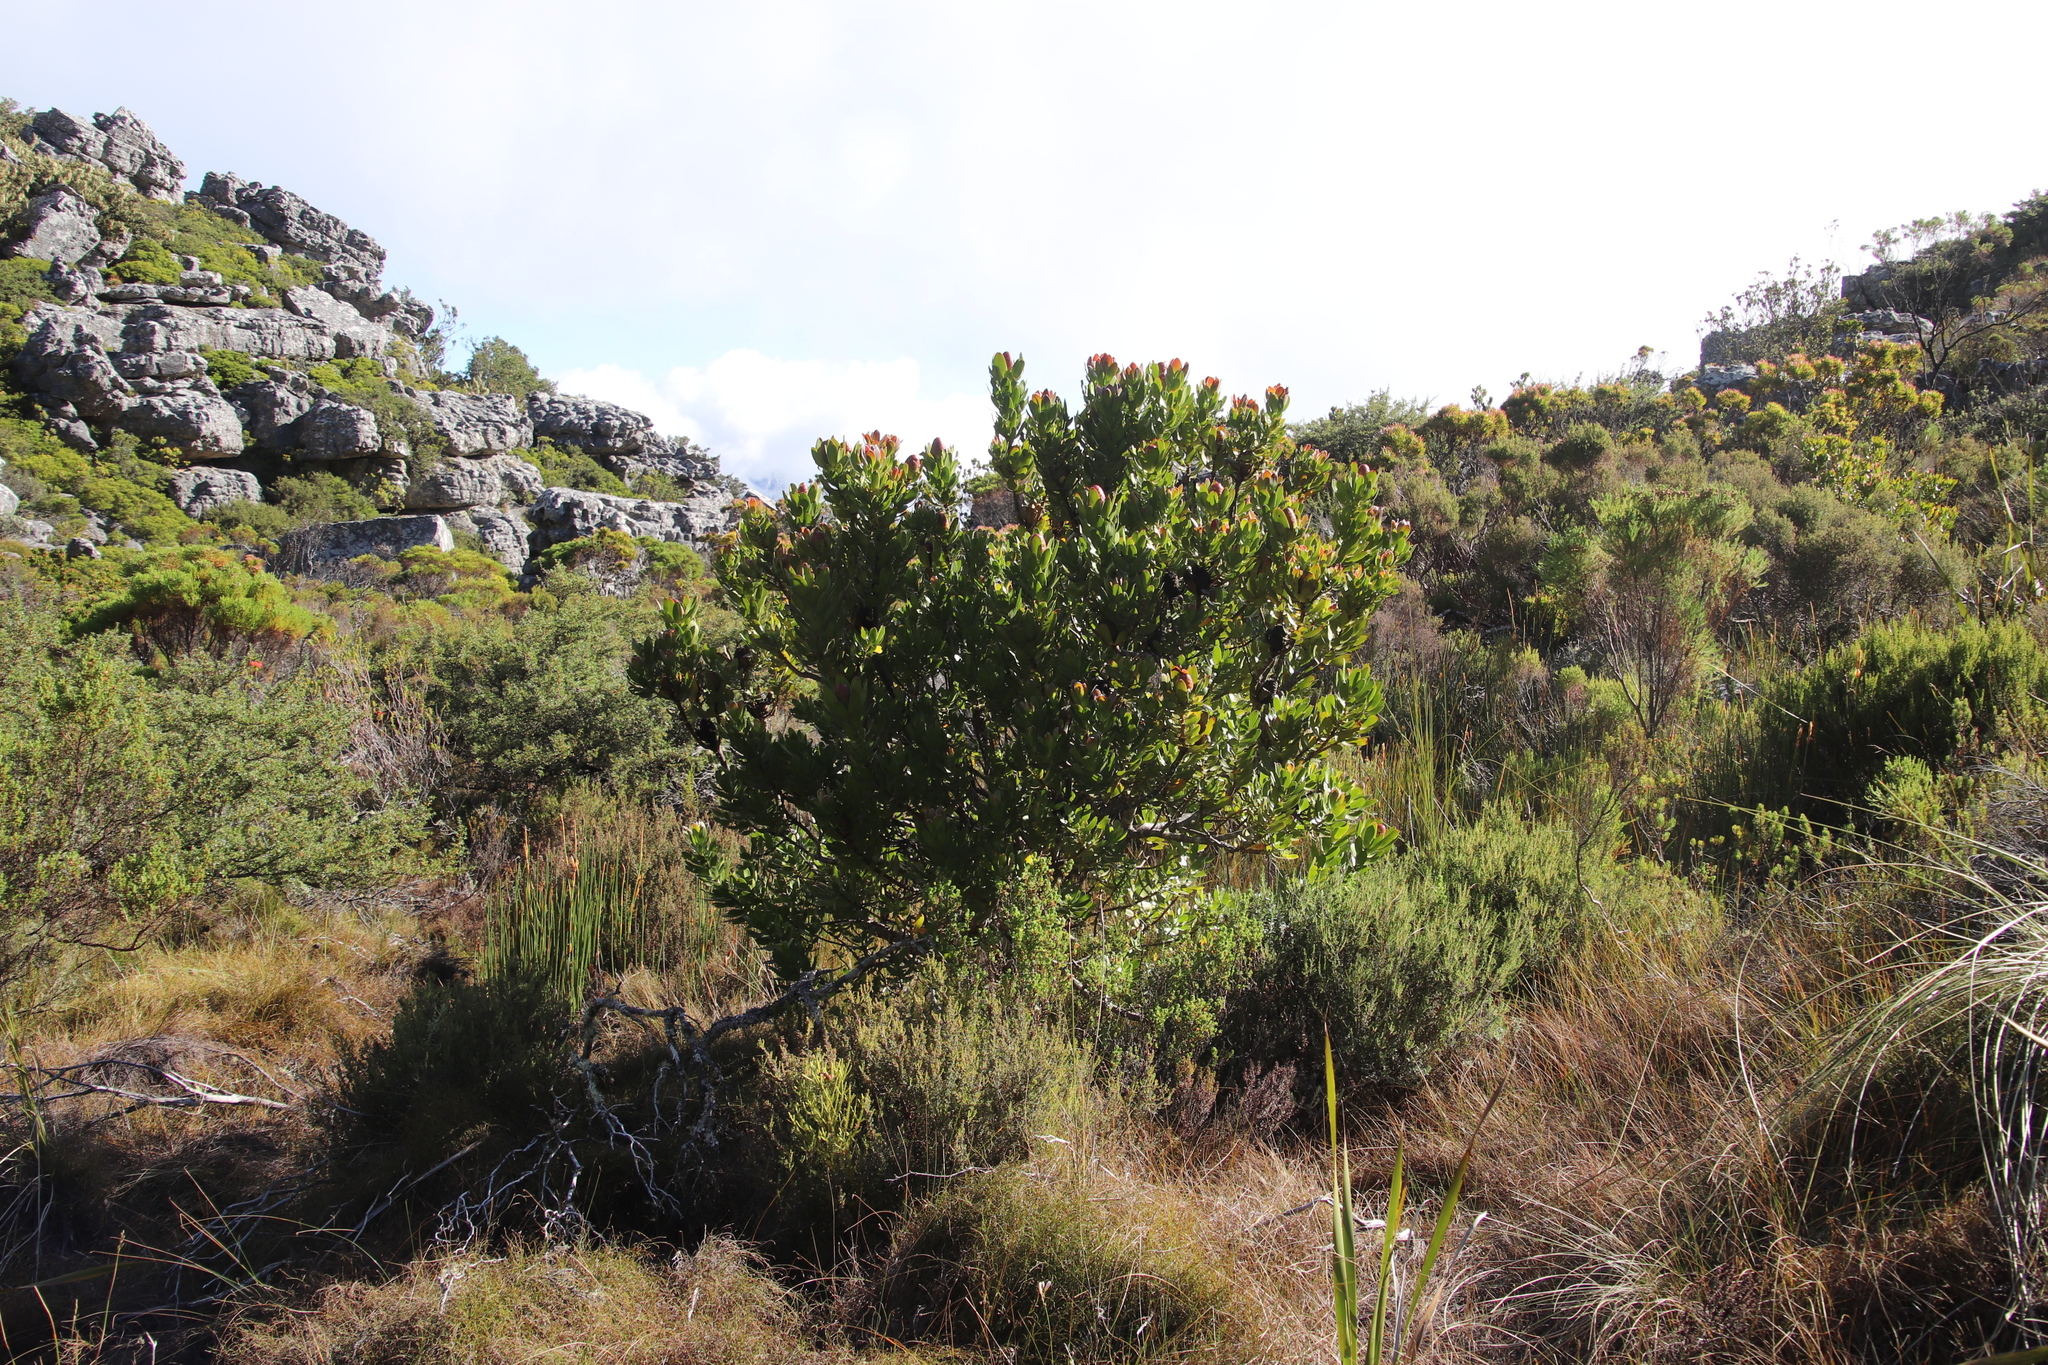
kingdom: Plantae
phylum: Tracheophyta
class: Magnoliopsida
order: Proteales
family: Proteaceae
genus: Leucadendron
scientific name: Leucadendron strobilinum
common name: Mountain rose
